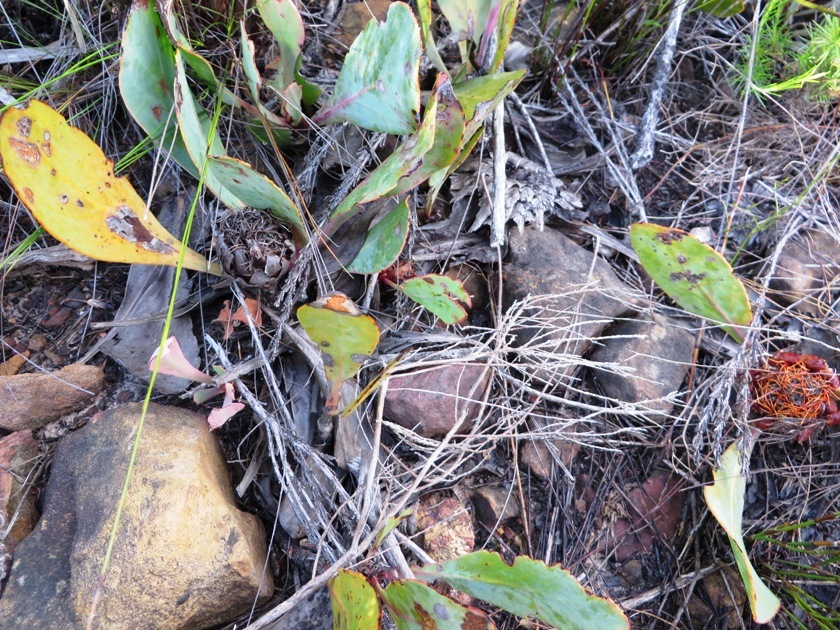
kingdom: Plantae
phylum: Tracheophyta
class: Magnoliopsida
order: Proteales
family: Proteaceae
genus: Protea
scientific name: Protea acaulos
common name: Common ground sugarbush
